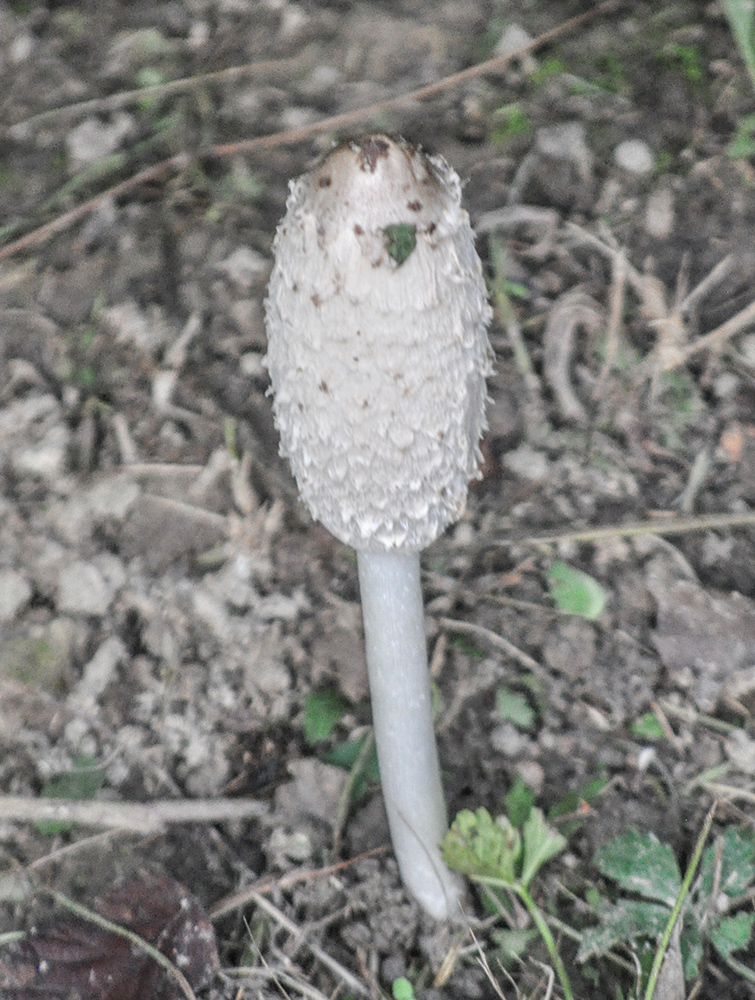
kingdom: Fungi
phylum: Basidiomycota
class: Agaricomycetes
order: Agaricales
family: Agaricaceae
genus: Coprinus
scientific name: Coprinus comatus
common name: Lawyer's wig
